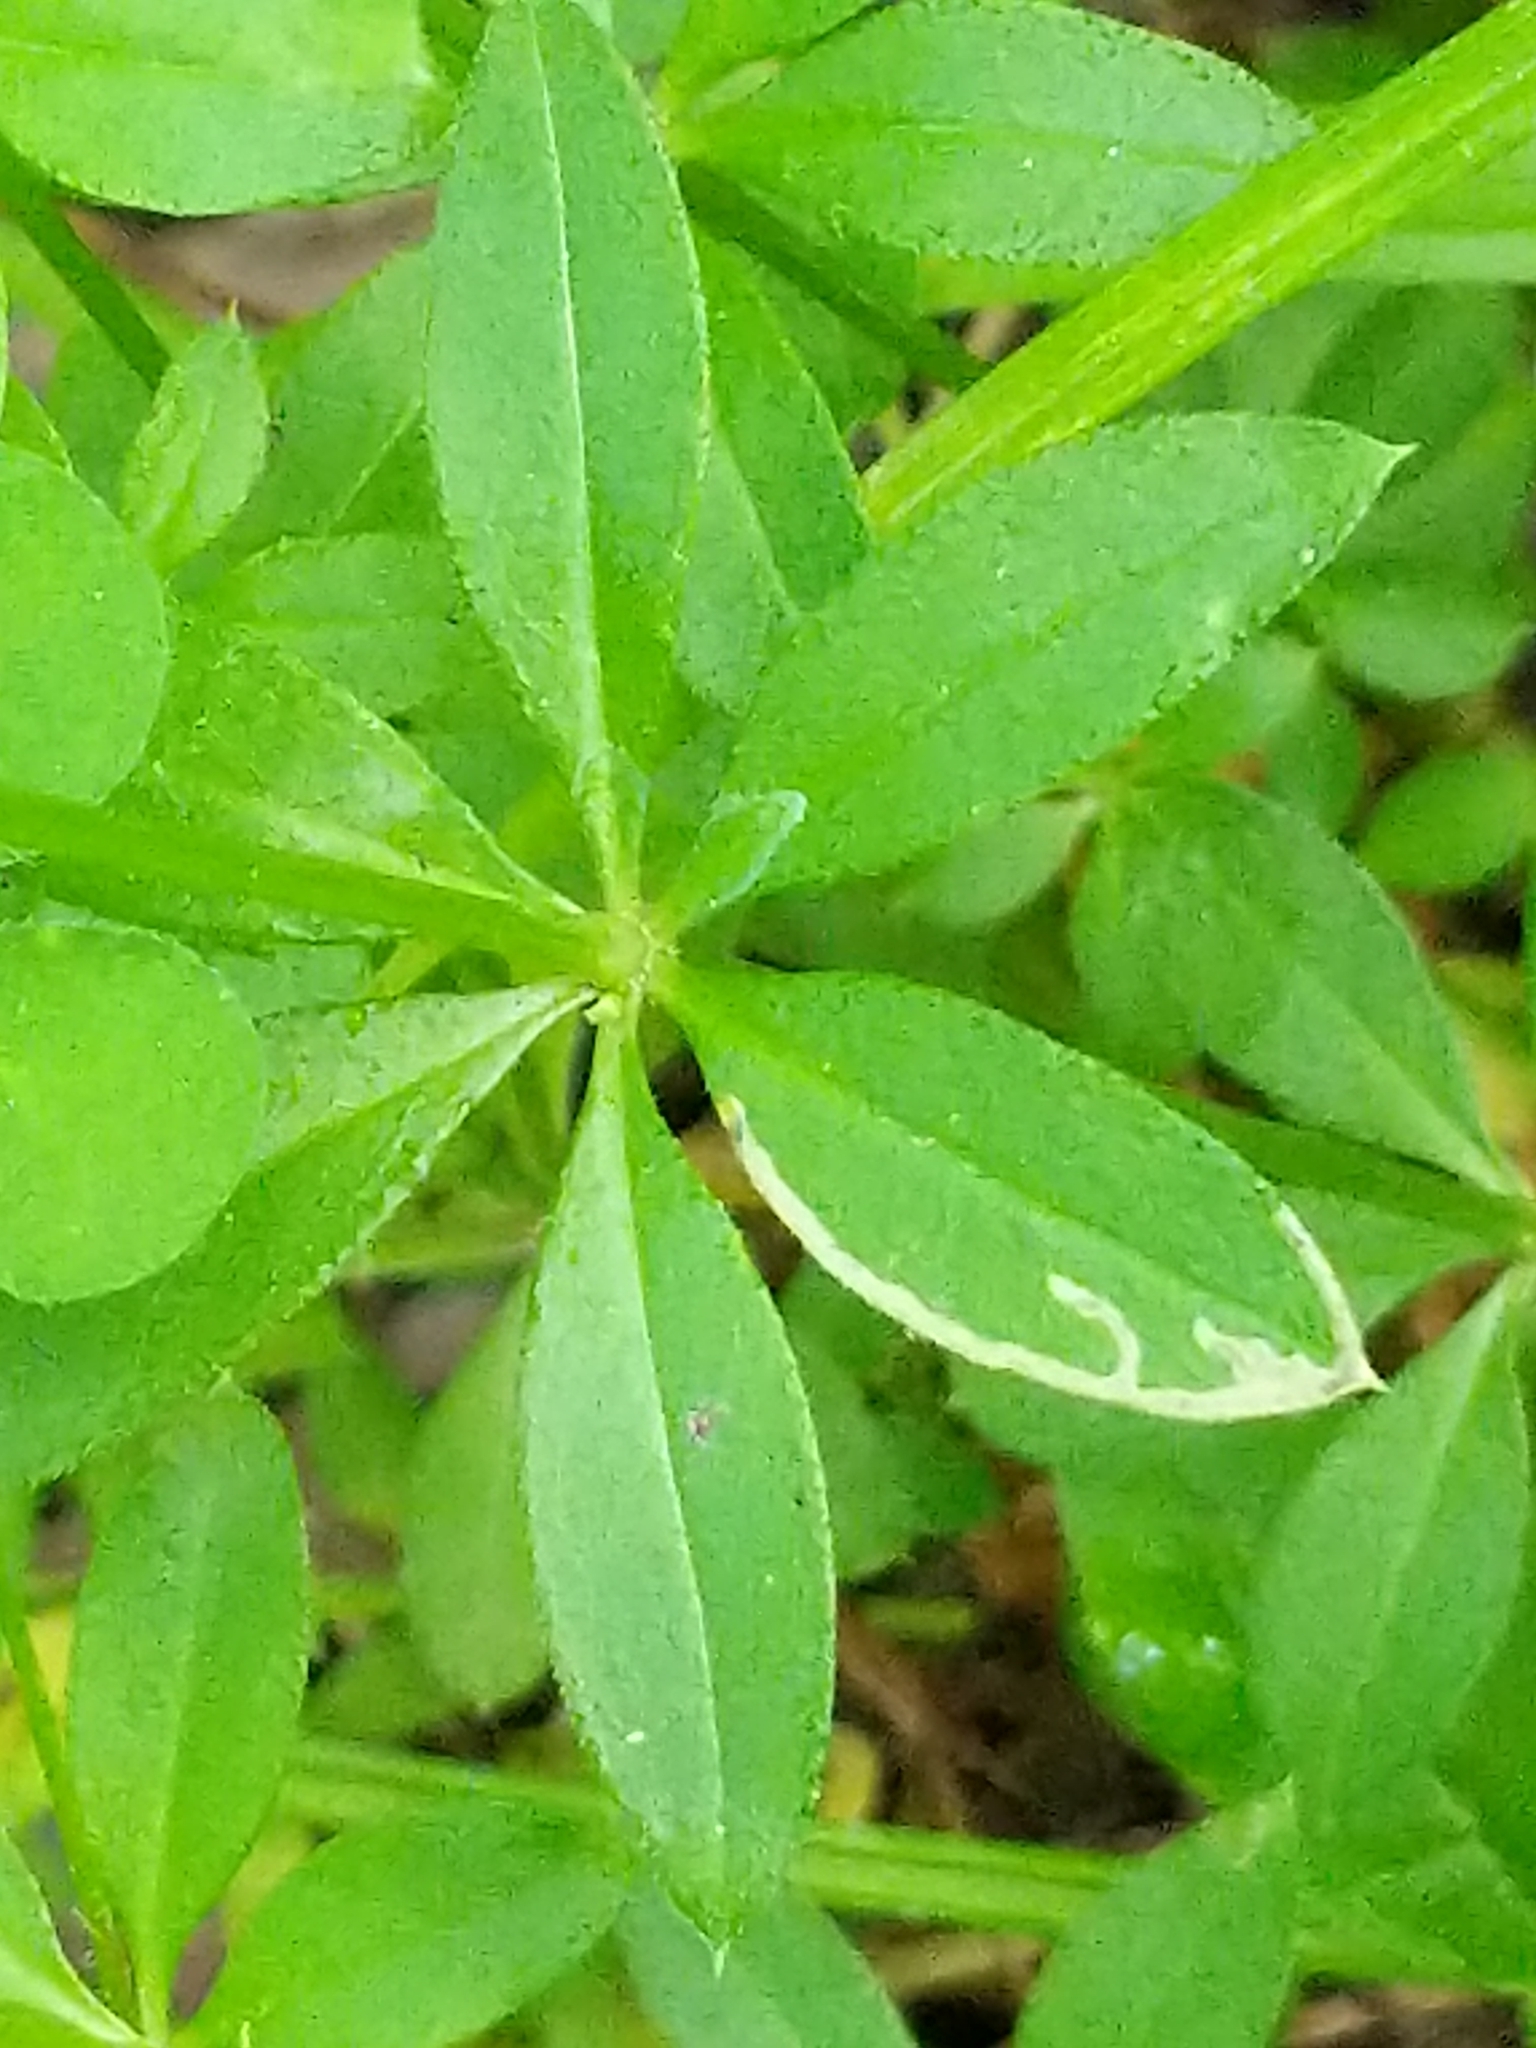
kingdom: Plantae
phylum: Tracheophyta
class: Magnoliopsida
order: Gentianales
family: Rubiaceae
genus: Galium
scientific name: Galium triflorum
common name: Fragrant bedstraw
